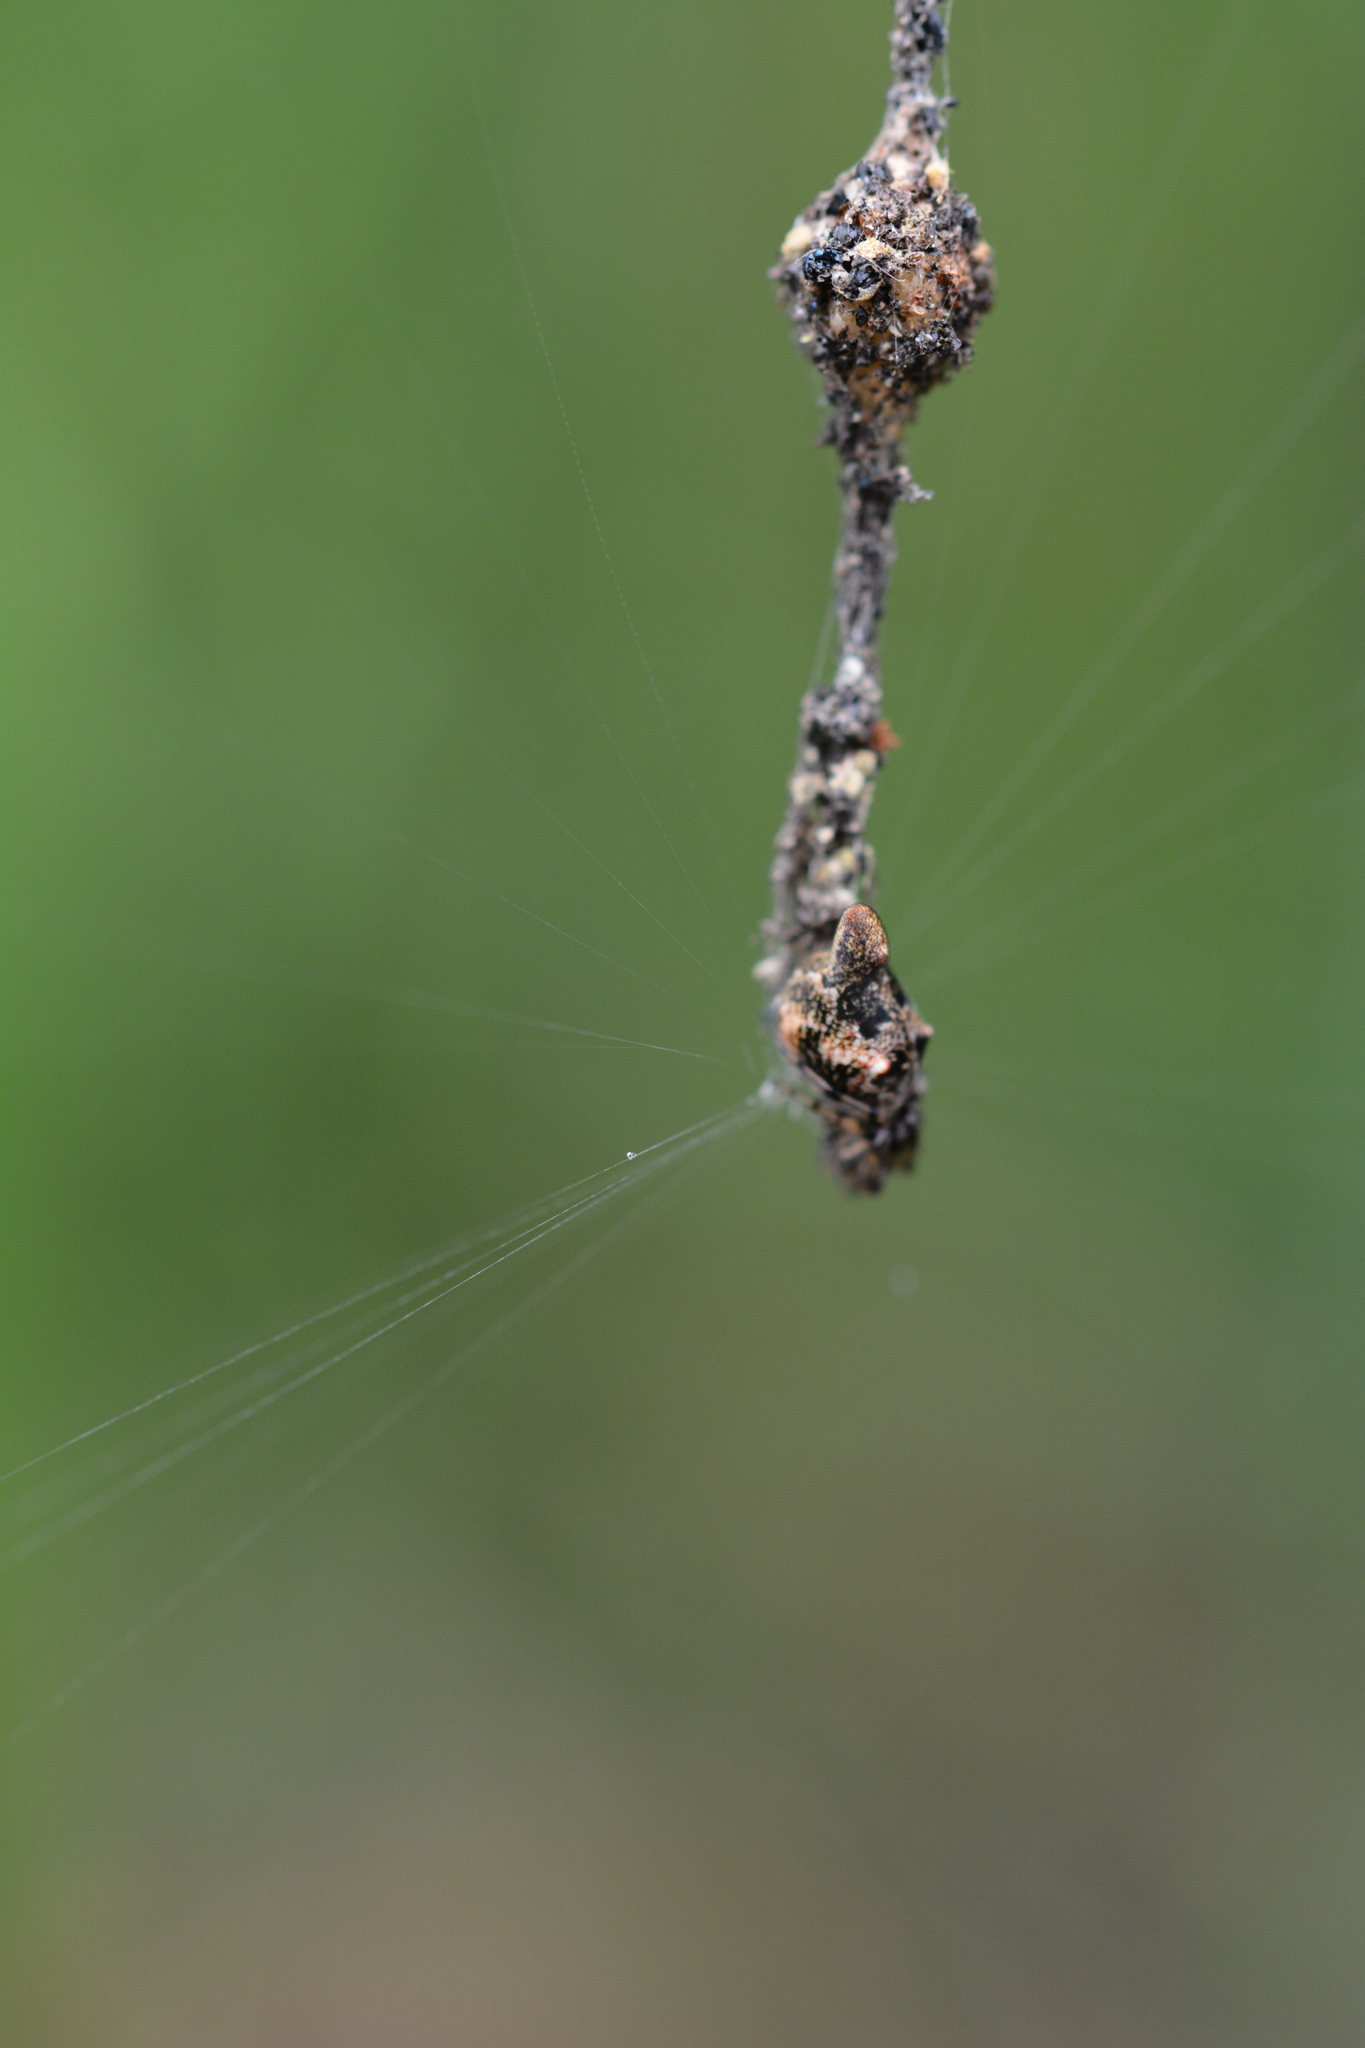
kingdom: Animalia
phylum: Arthropoda
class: Arachnida
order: Araneae
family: Araneidae
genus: Cyclosa
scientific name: Cyclosa turbinata
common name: Orb weavers
